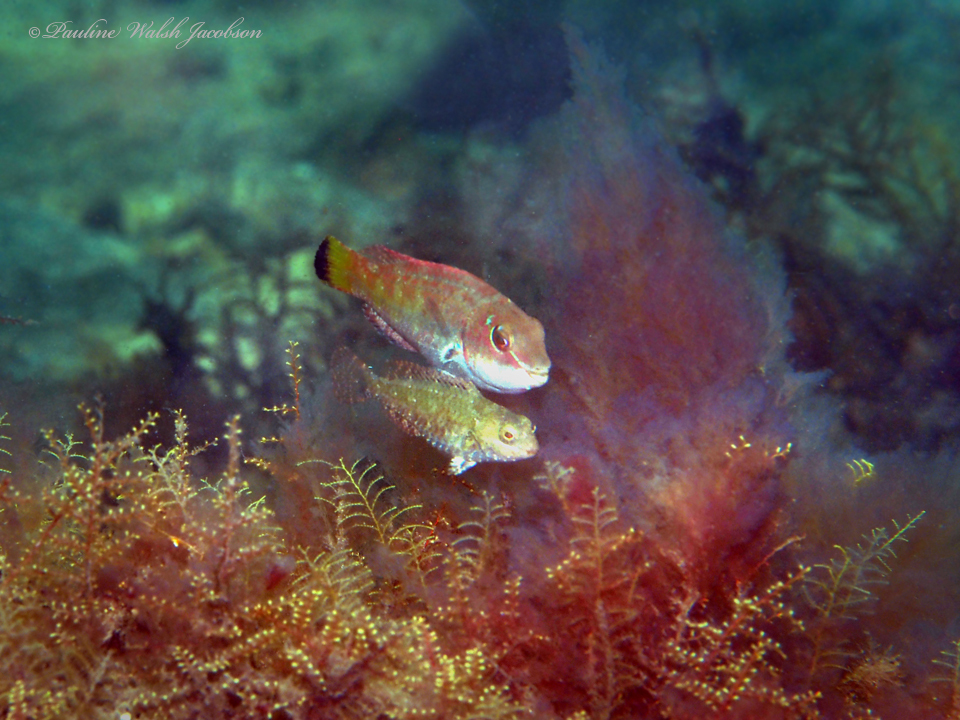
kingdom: Animalia
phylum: Chordata
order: Perciformes
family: Scaridae
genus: Sparisoma
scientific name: Sparisoma radians
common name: Bucktooth parrotfish
